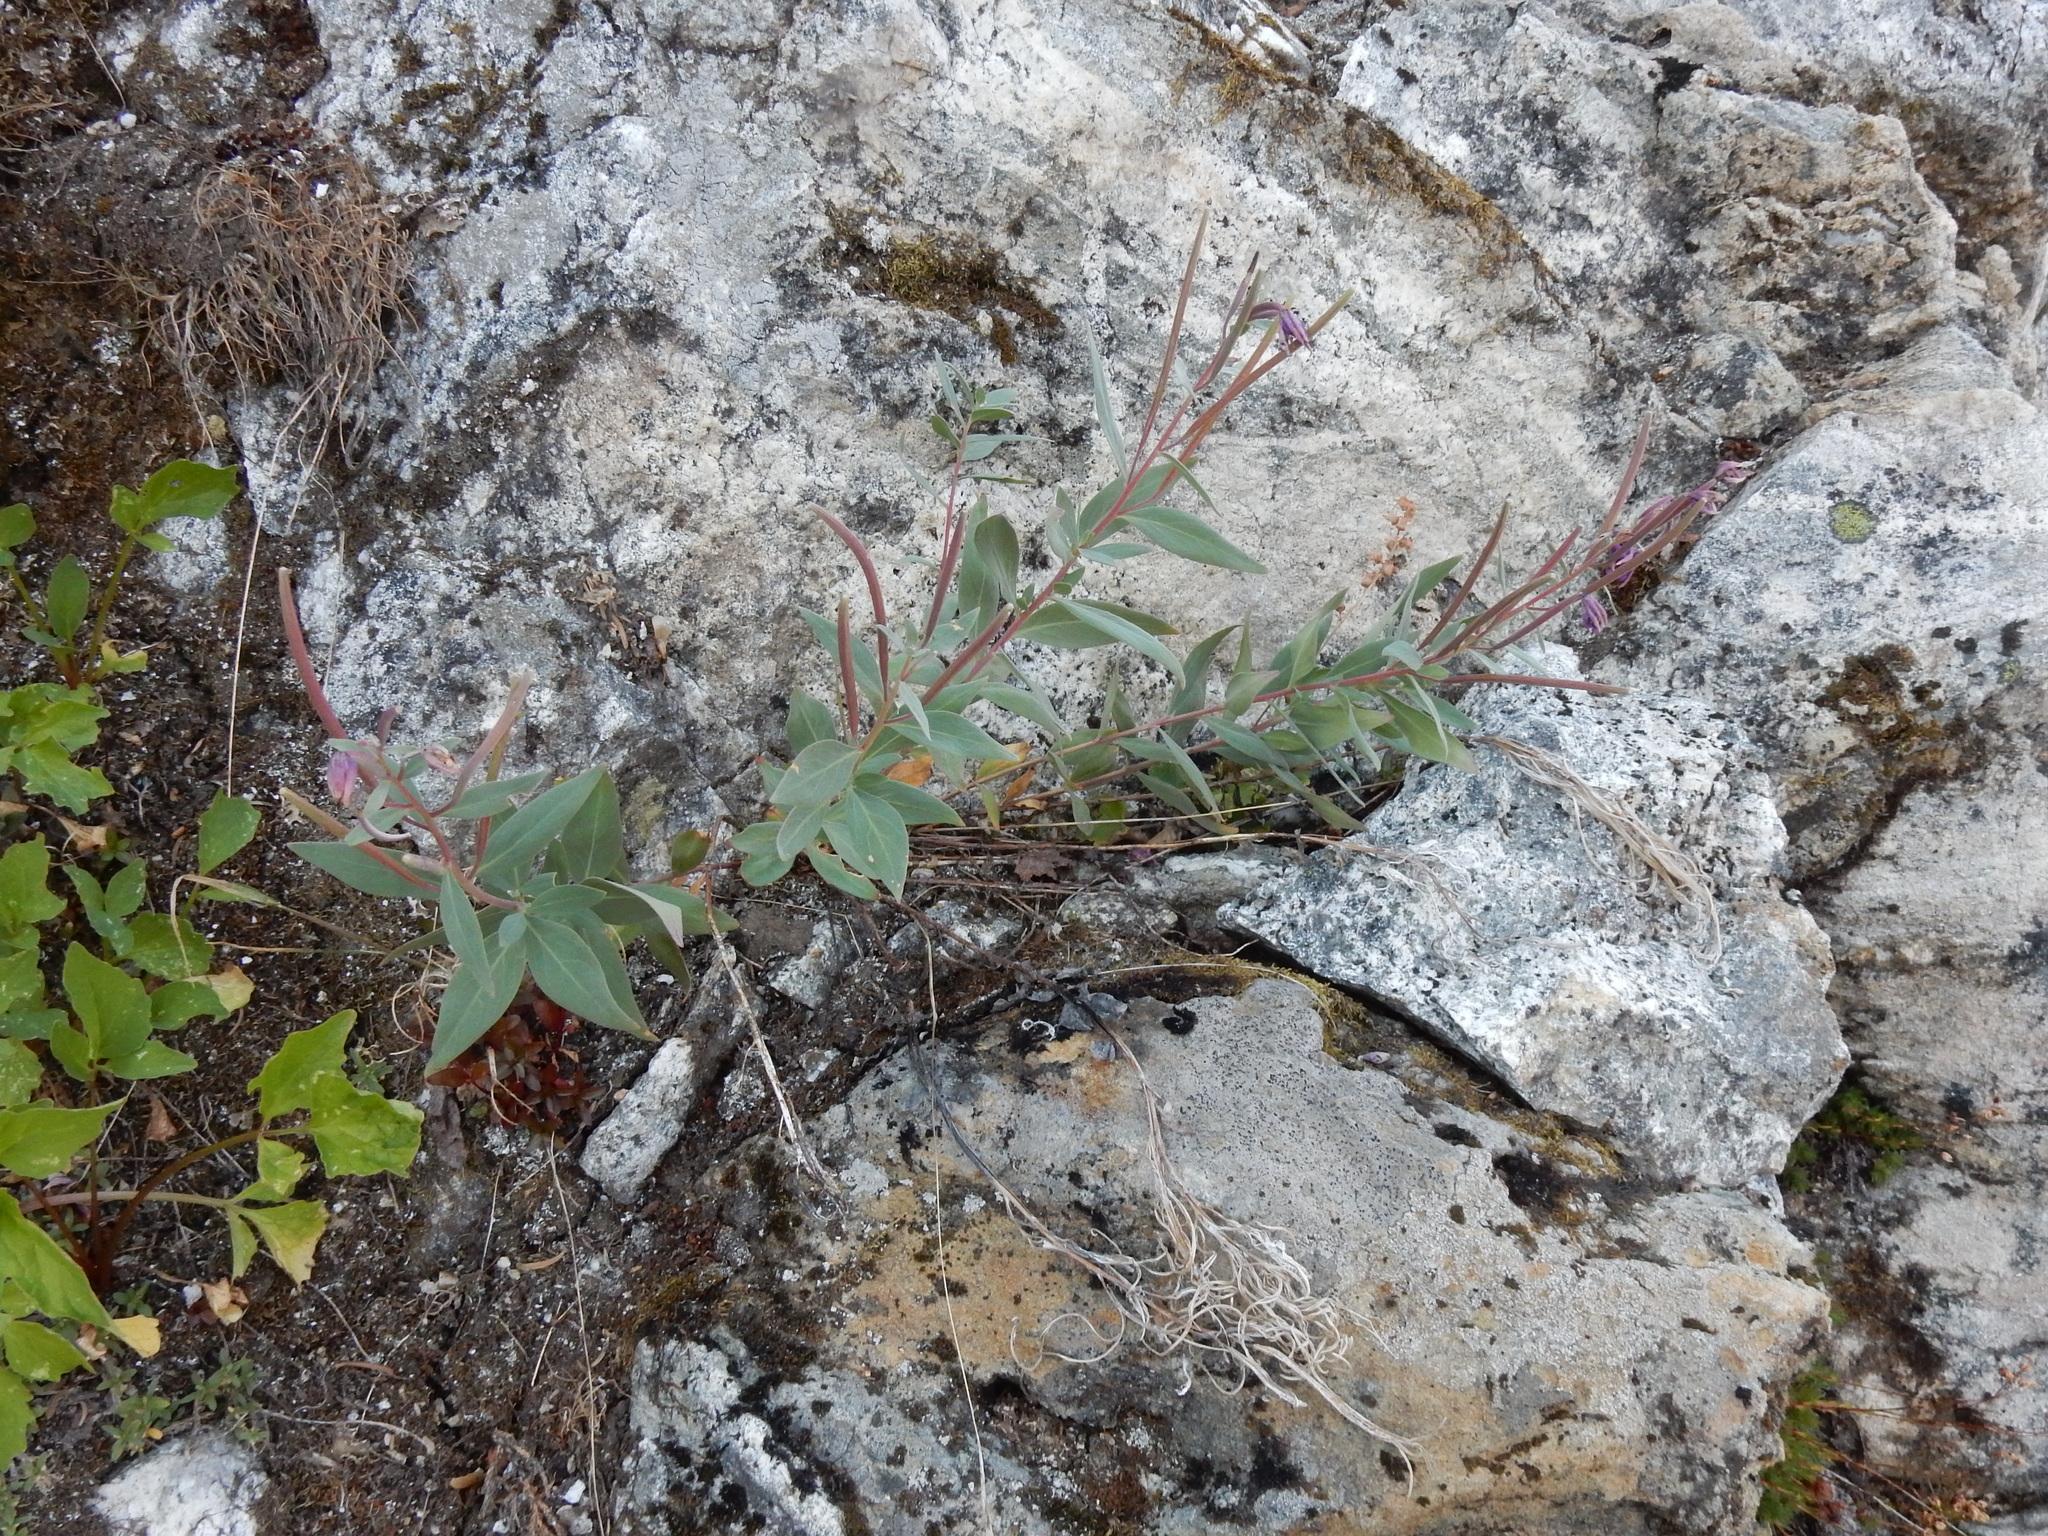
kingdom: Plantae
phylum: Tracheophyta
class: Magnoliopsida
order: Myrtales
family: Onagraceae
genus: Chamaenerion
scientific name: Chamaenerion latifolium
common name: Dwarf fireweed
